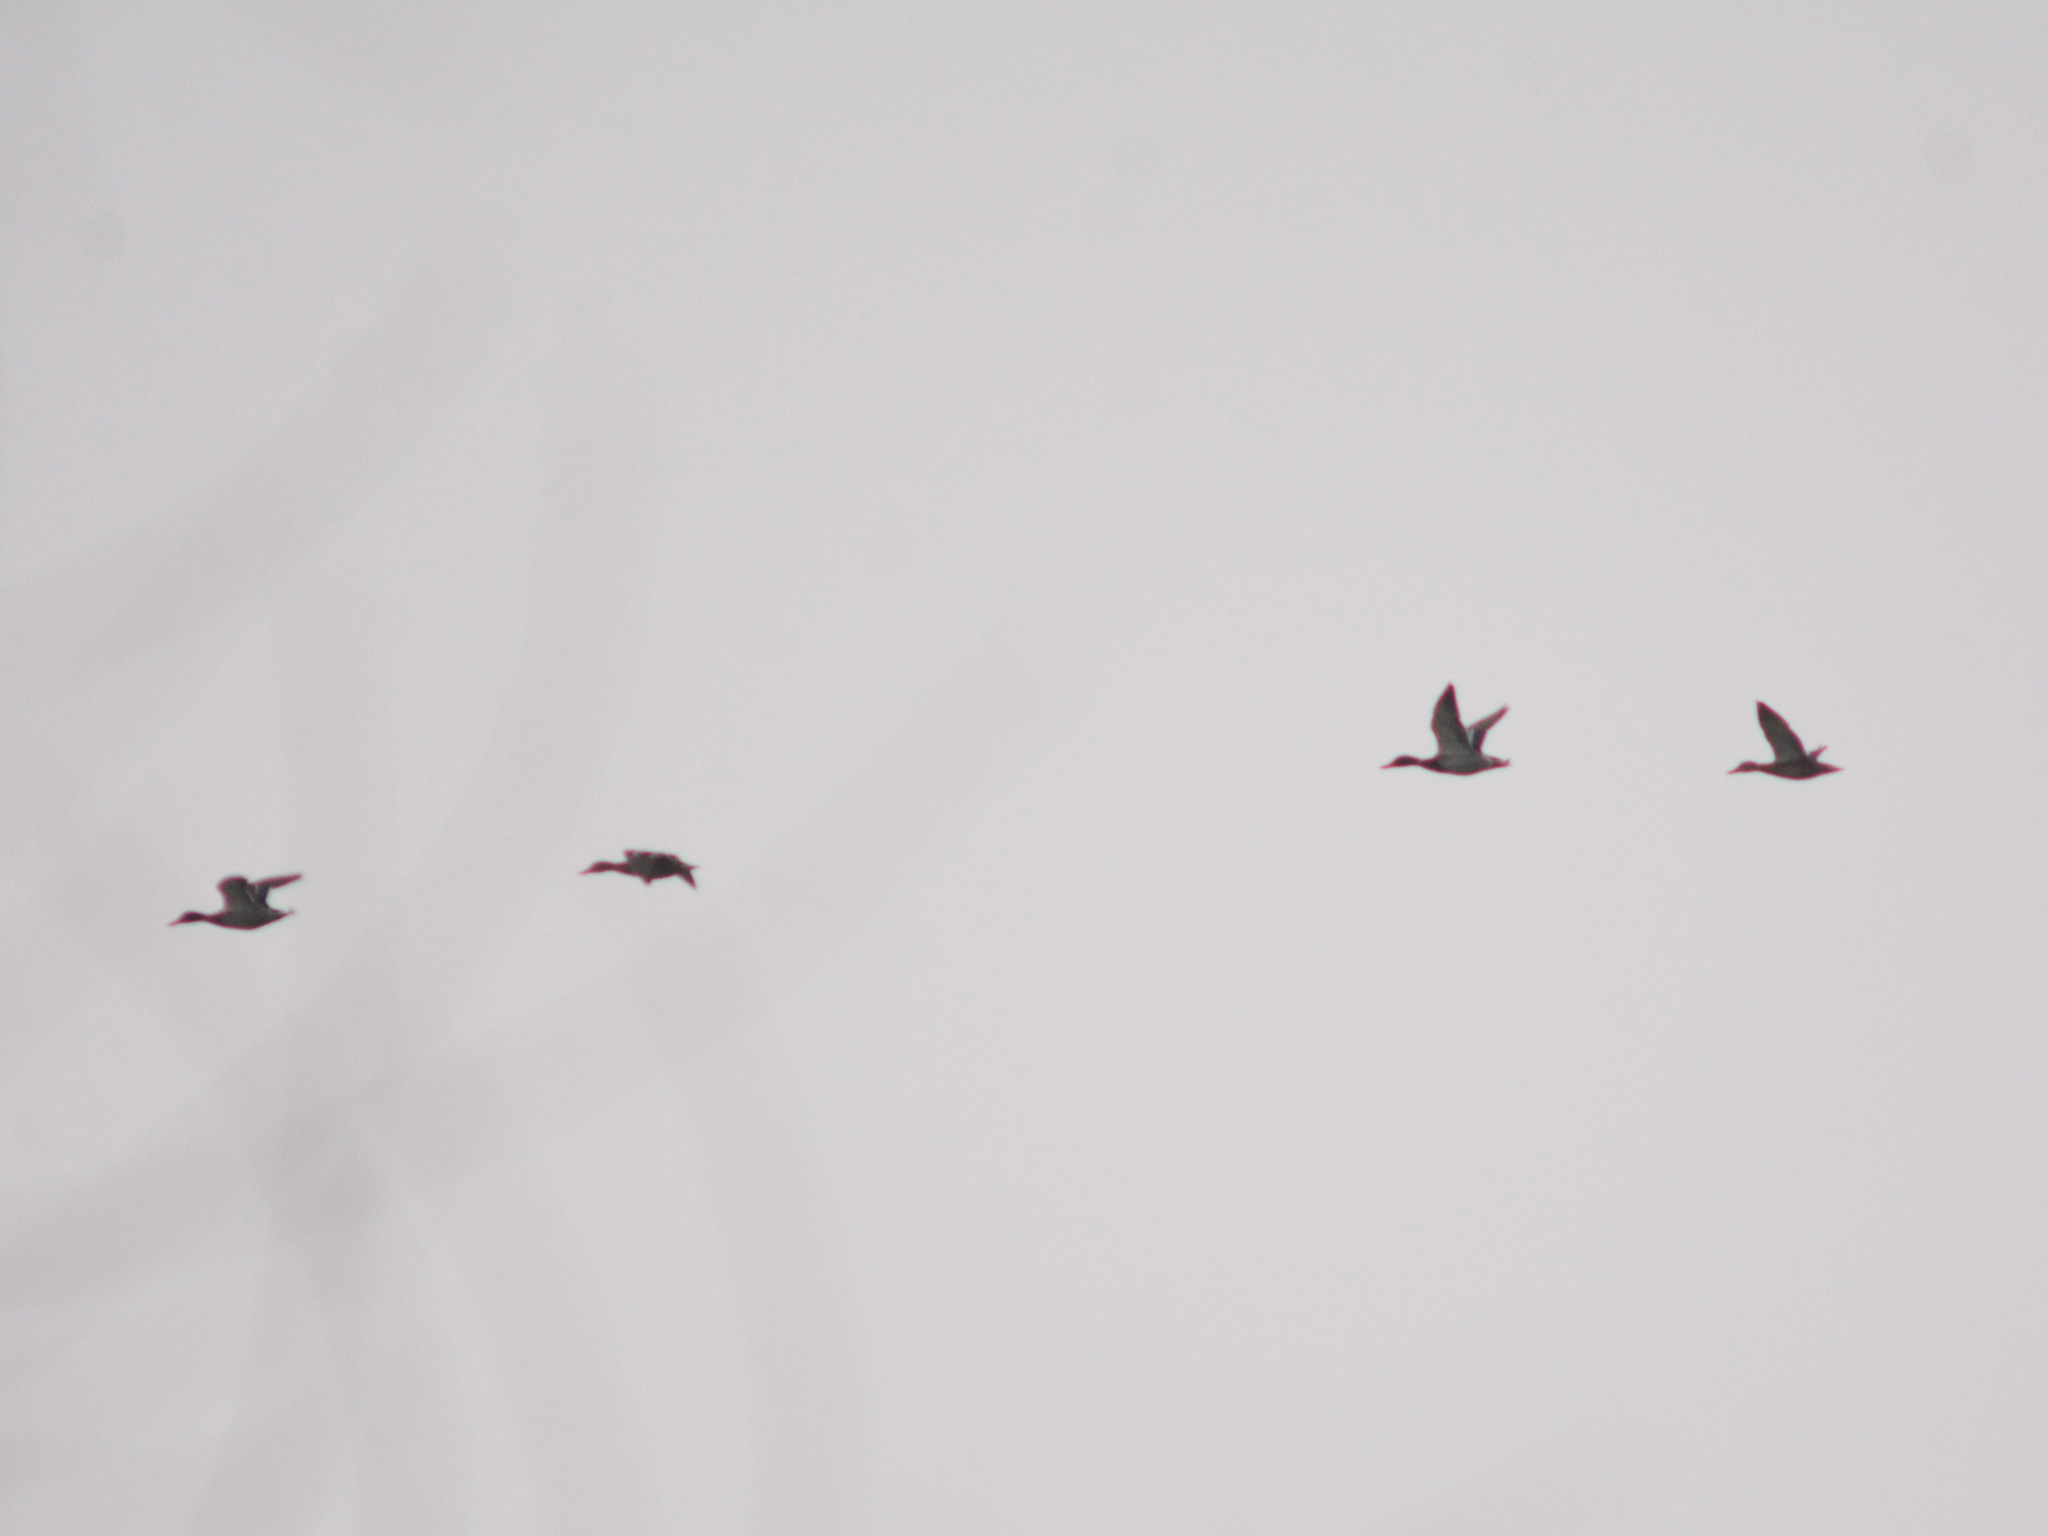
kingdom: Animalia
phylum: Chordata
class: Aves
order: Anseriformes
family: Anatidae
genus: Anas
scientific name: Anas platyrhynchos
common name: Mallard
